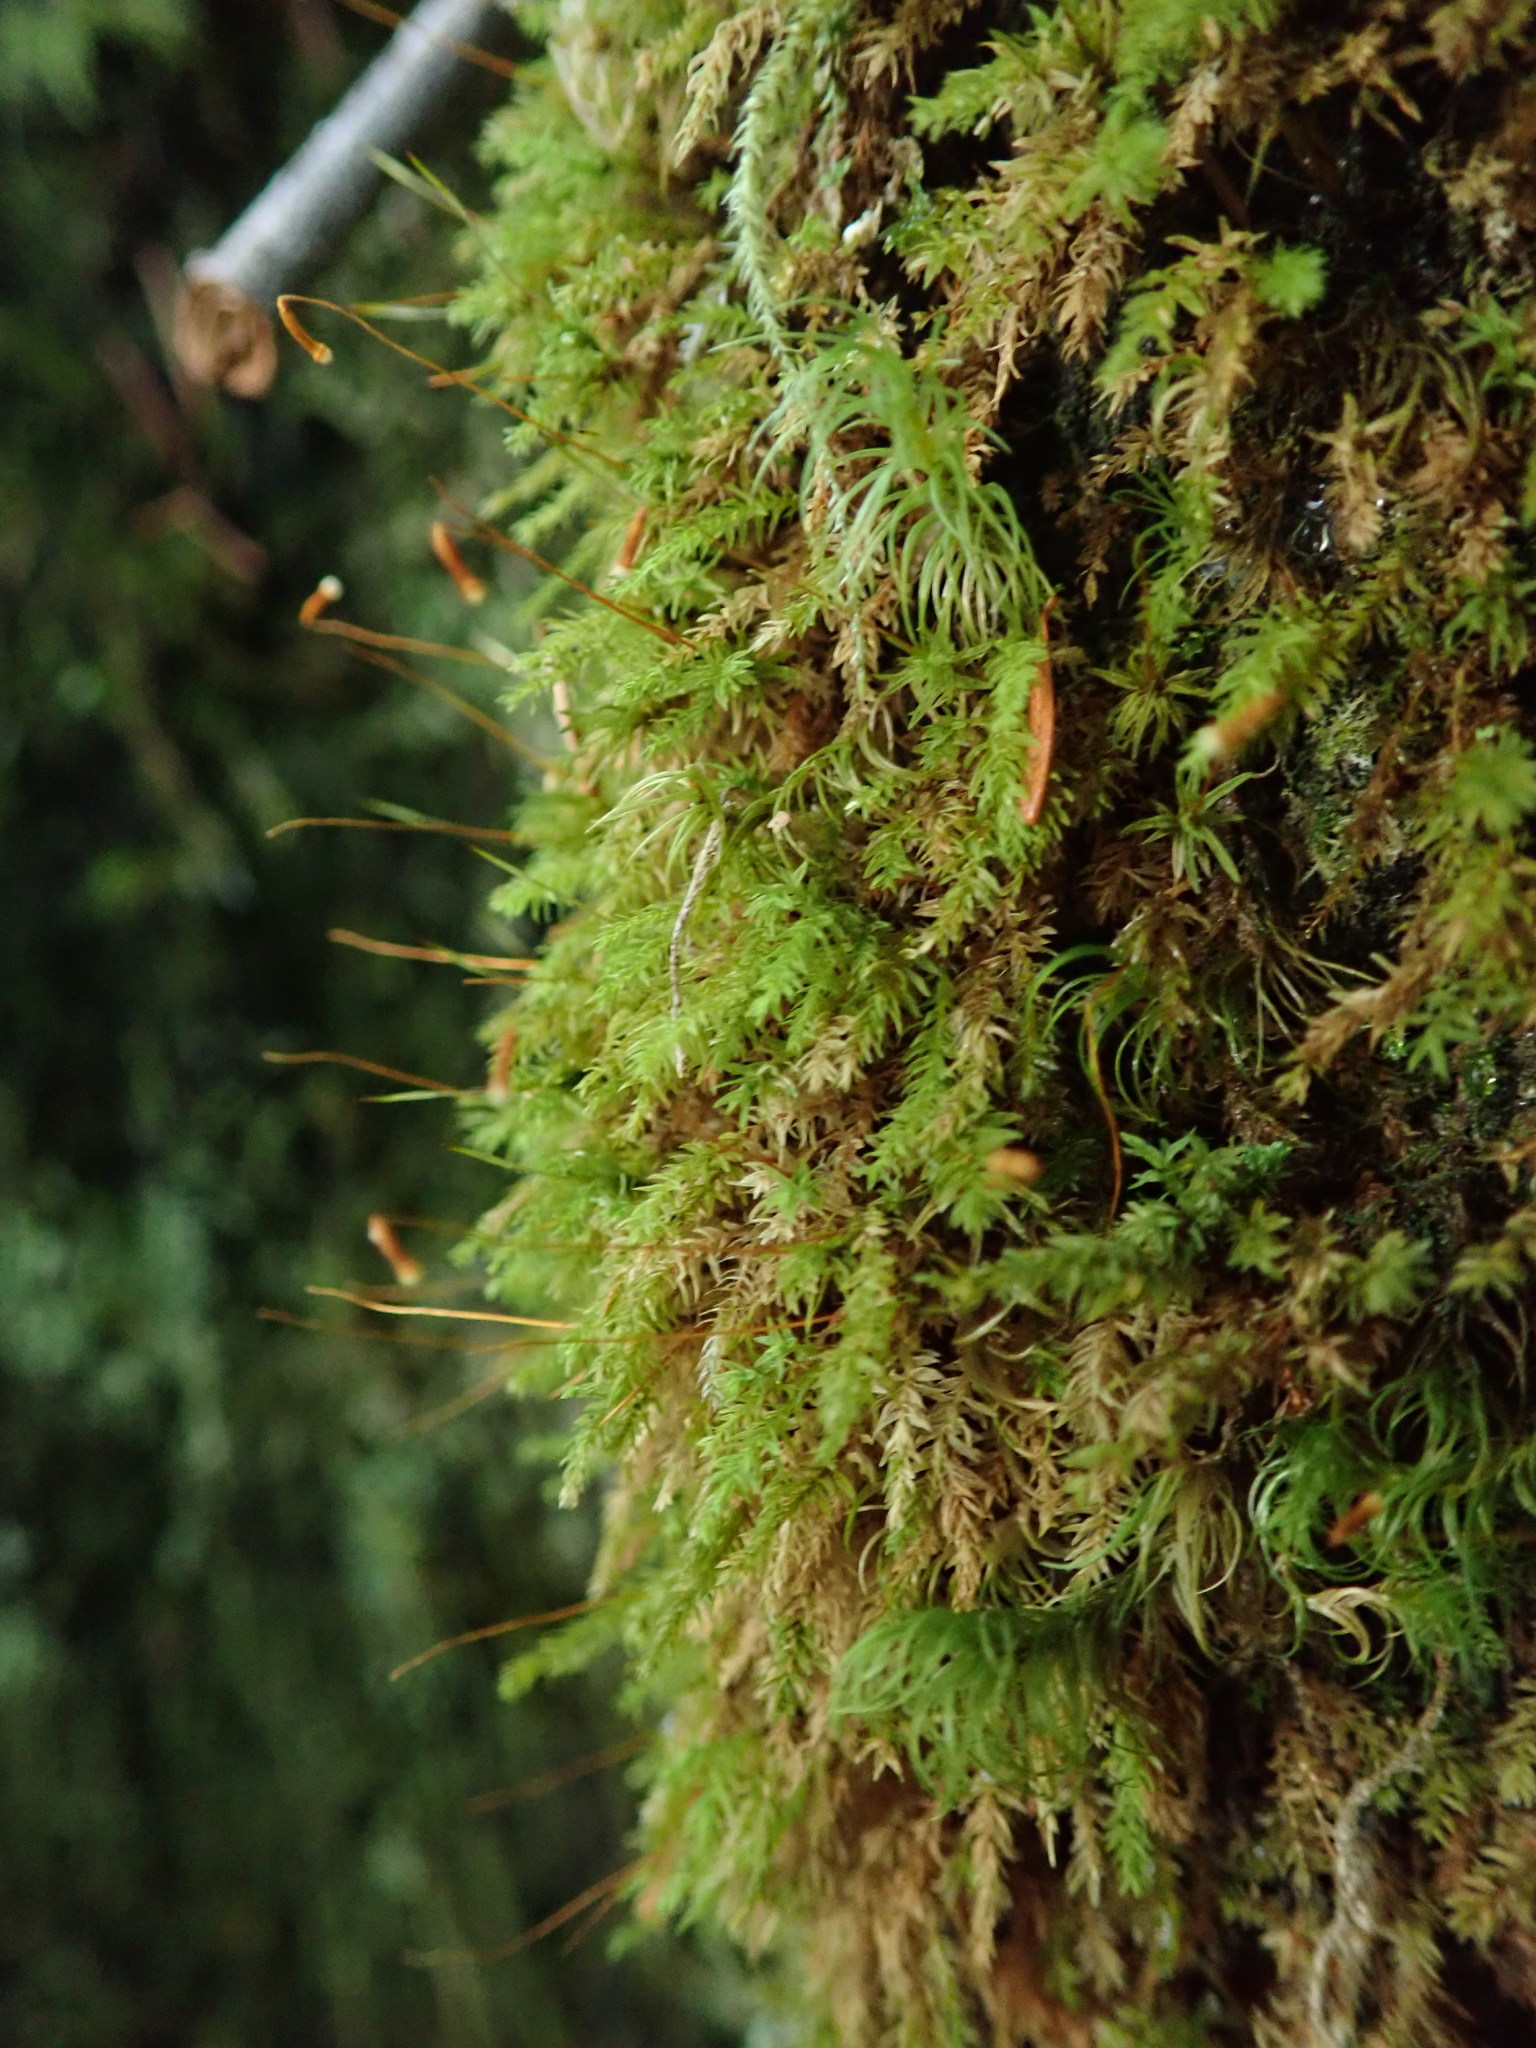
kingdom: Plantae
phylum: Bryophyta
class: Bryopsida
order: Aulacomniales
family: Aulacomniaceae
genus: Aulacomnium
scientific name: Aulacomnium androgynum
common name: Little groove moss
